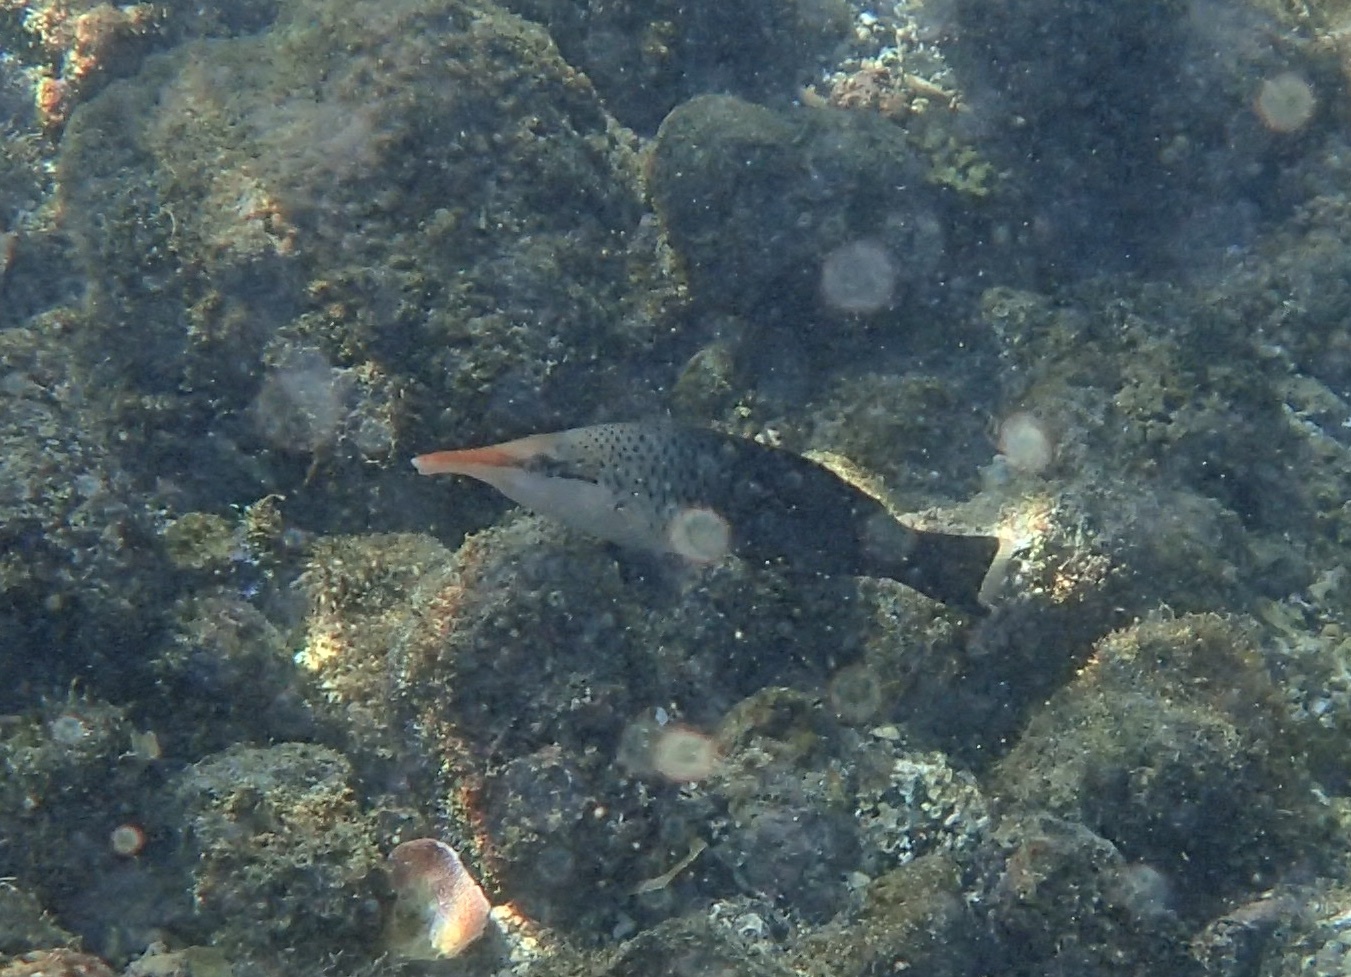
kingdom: Animalia
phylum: Chordata
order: Perciformes
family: Labridae
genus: Gomphosus
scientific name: Gomphosus varius
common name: Bird wrasse
